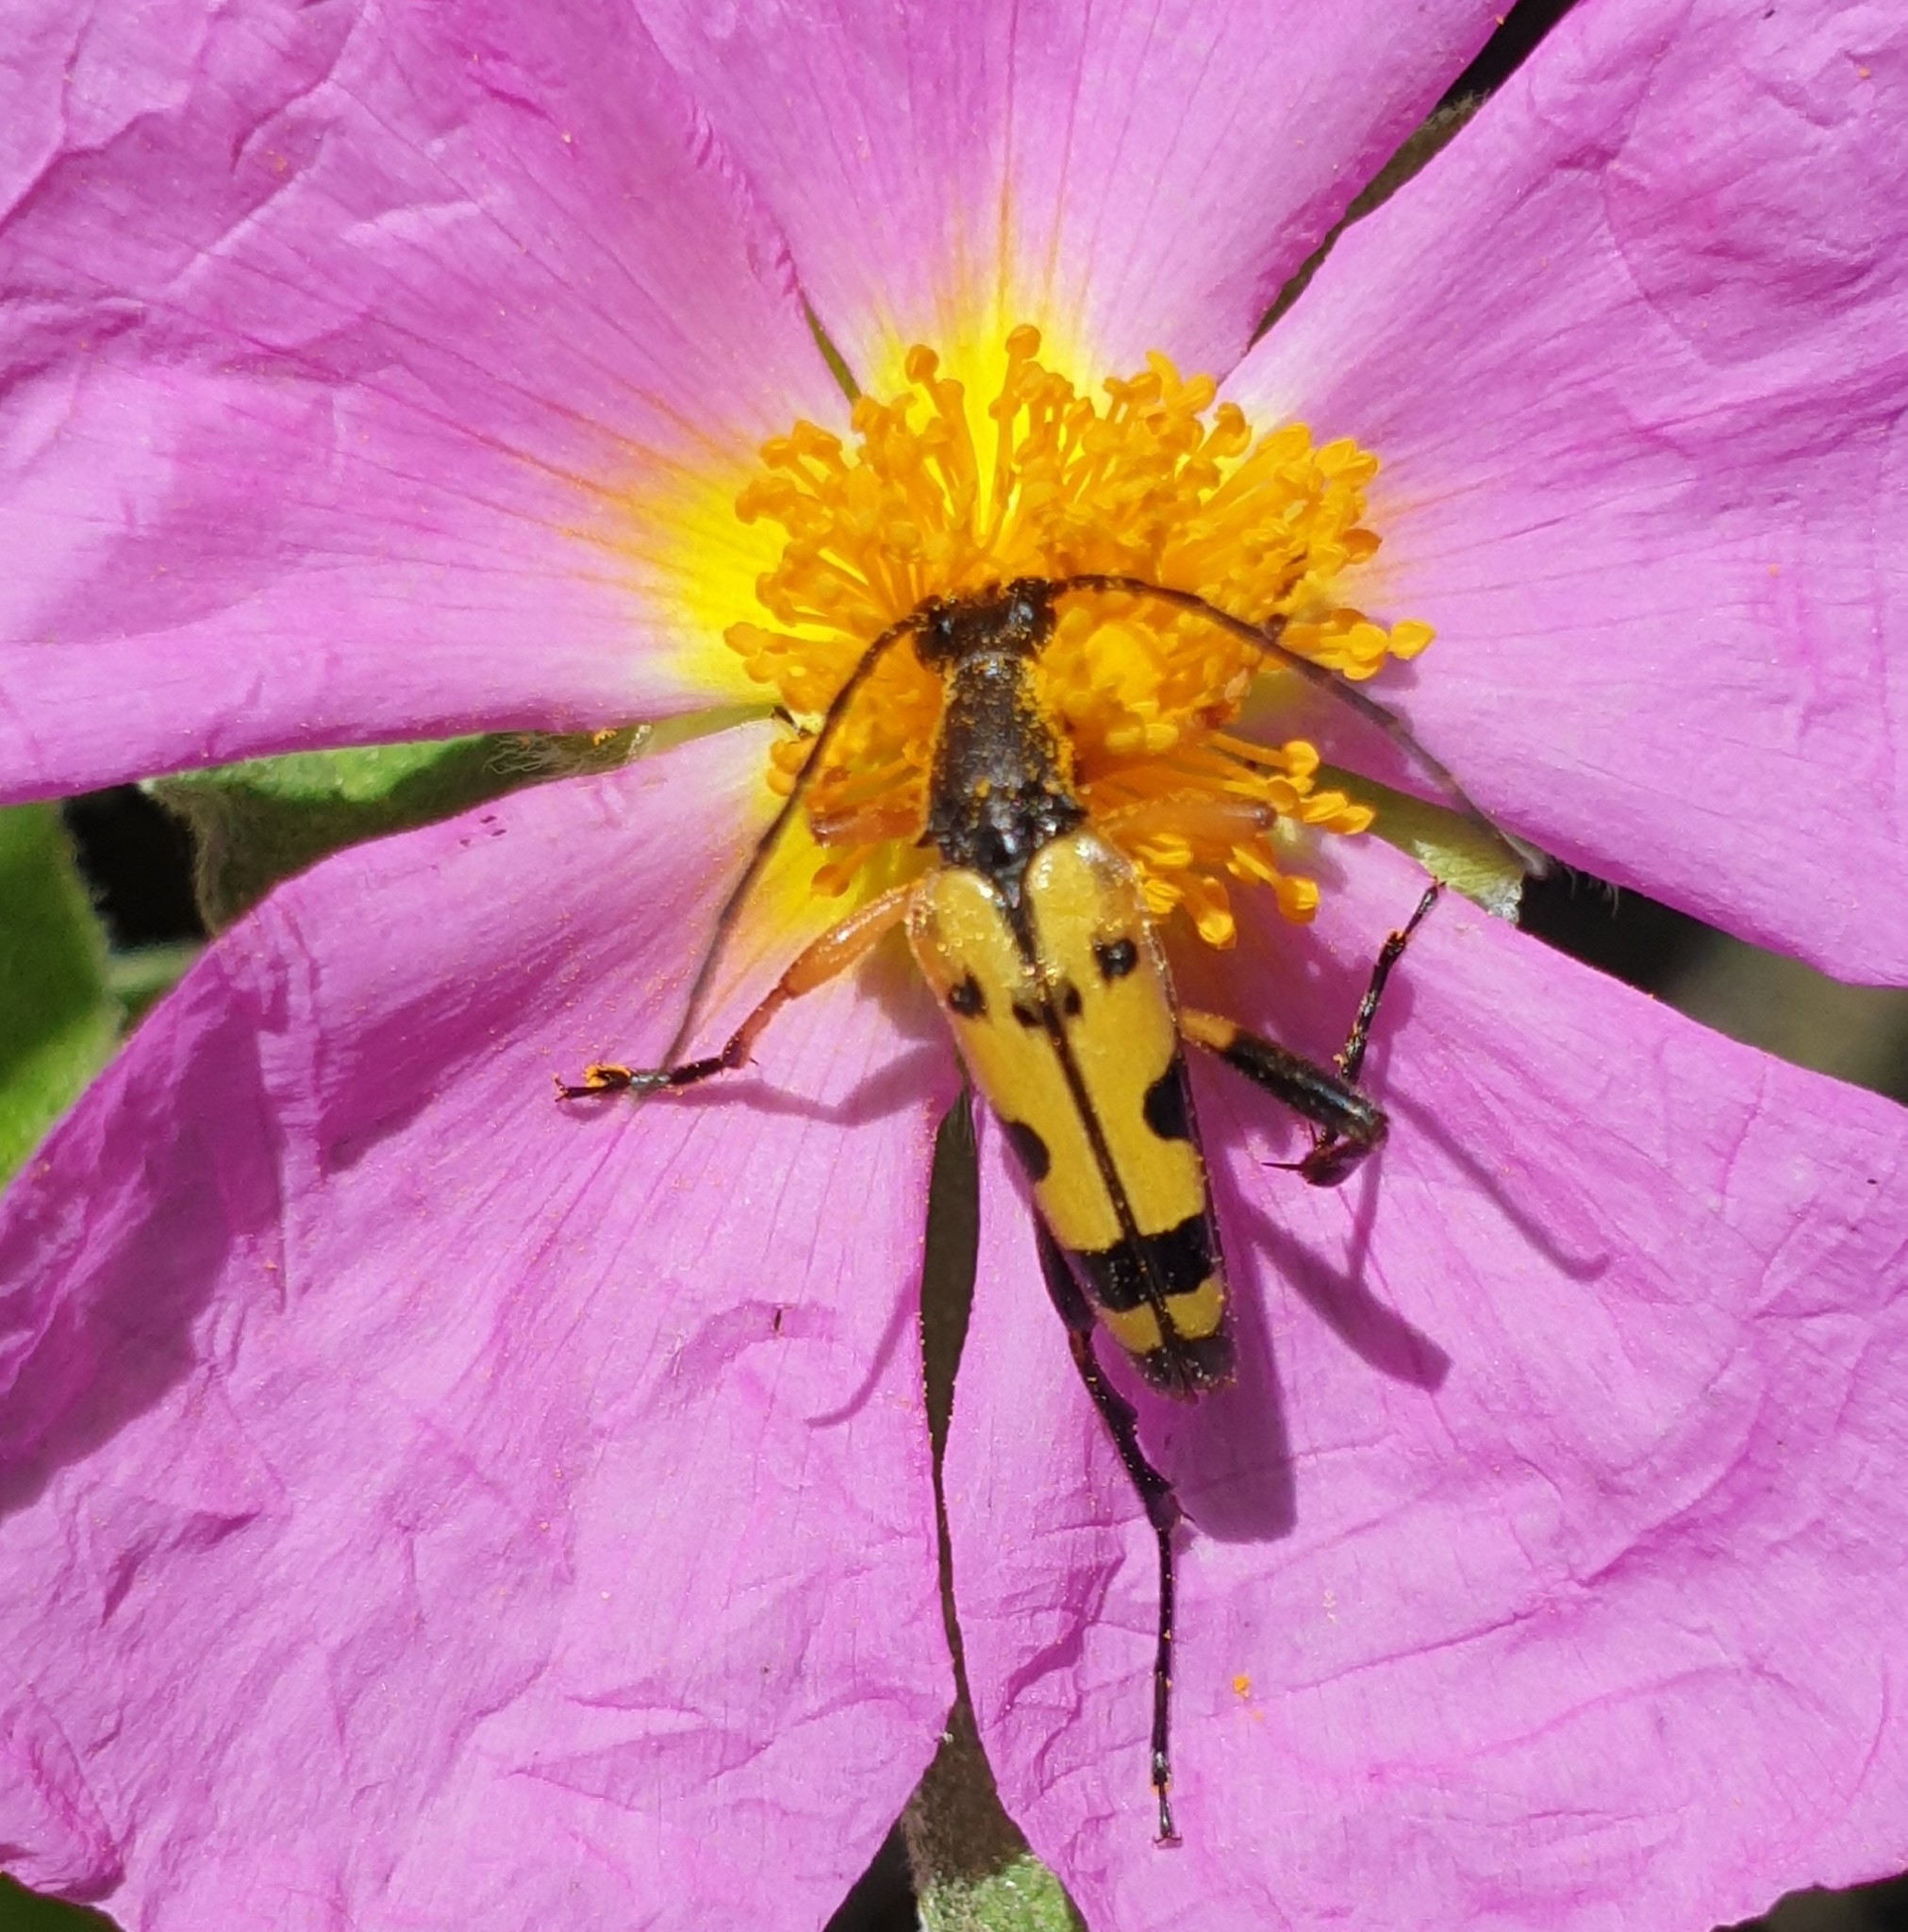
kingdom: Animalia
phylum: Arthropoda
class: Insecta
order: Coleoptera
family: Cerambycidae
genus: Rutpela
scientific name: Rutpela maculata
